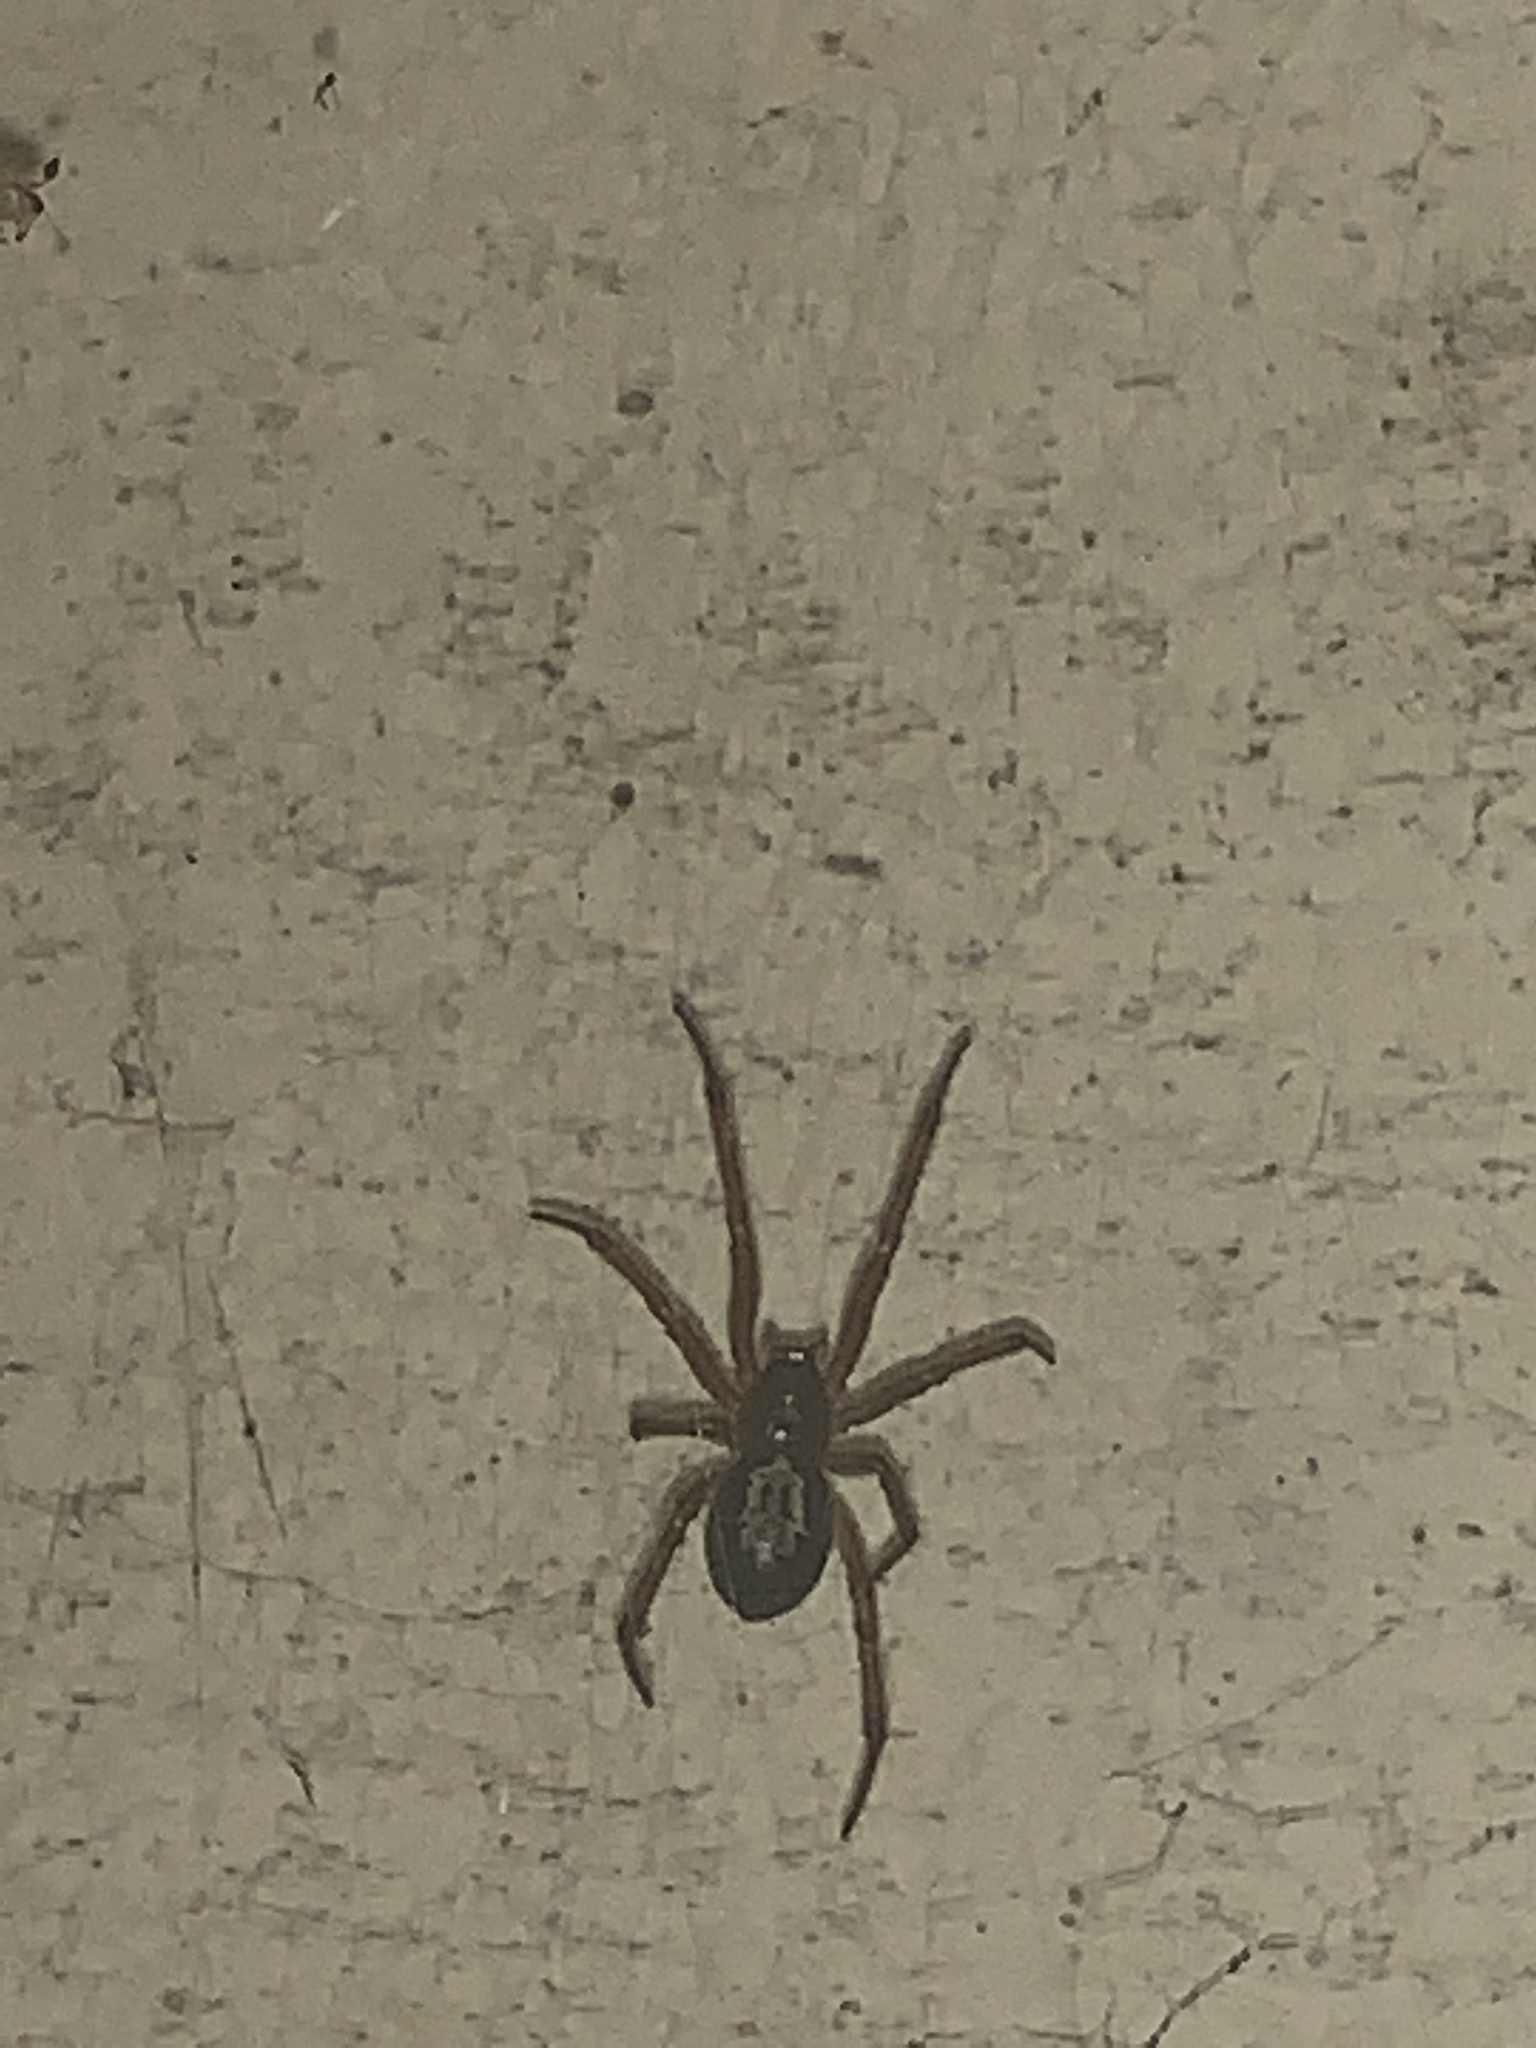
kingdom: Animalia
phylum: Arthropoda
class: Arachnida
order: Araneae
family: Theridiidae
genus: Steatoda
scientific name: Steatoda nobilis
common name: Cobweb weaver
